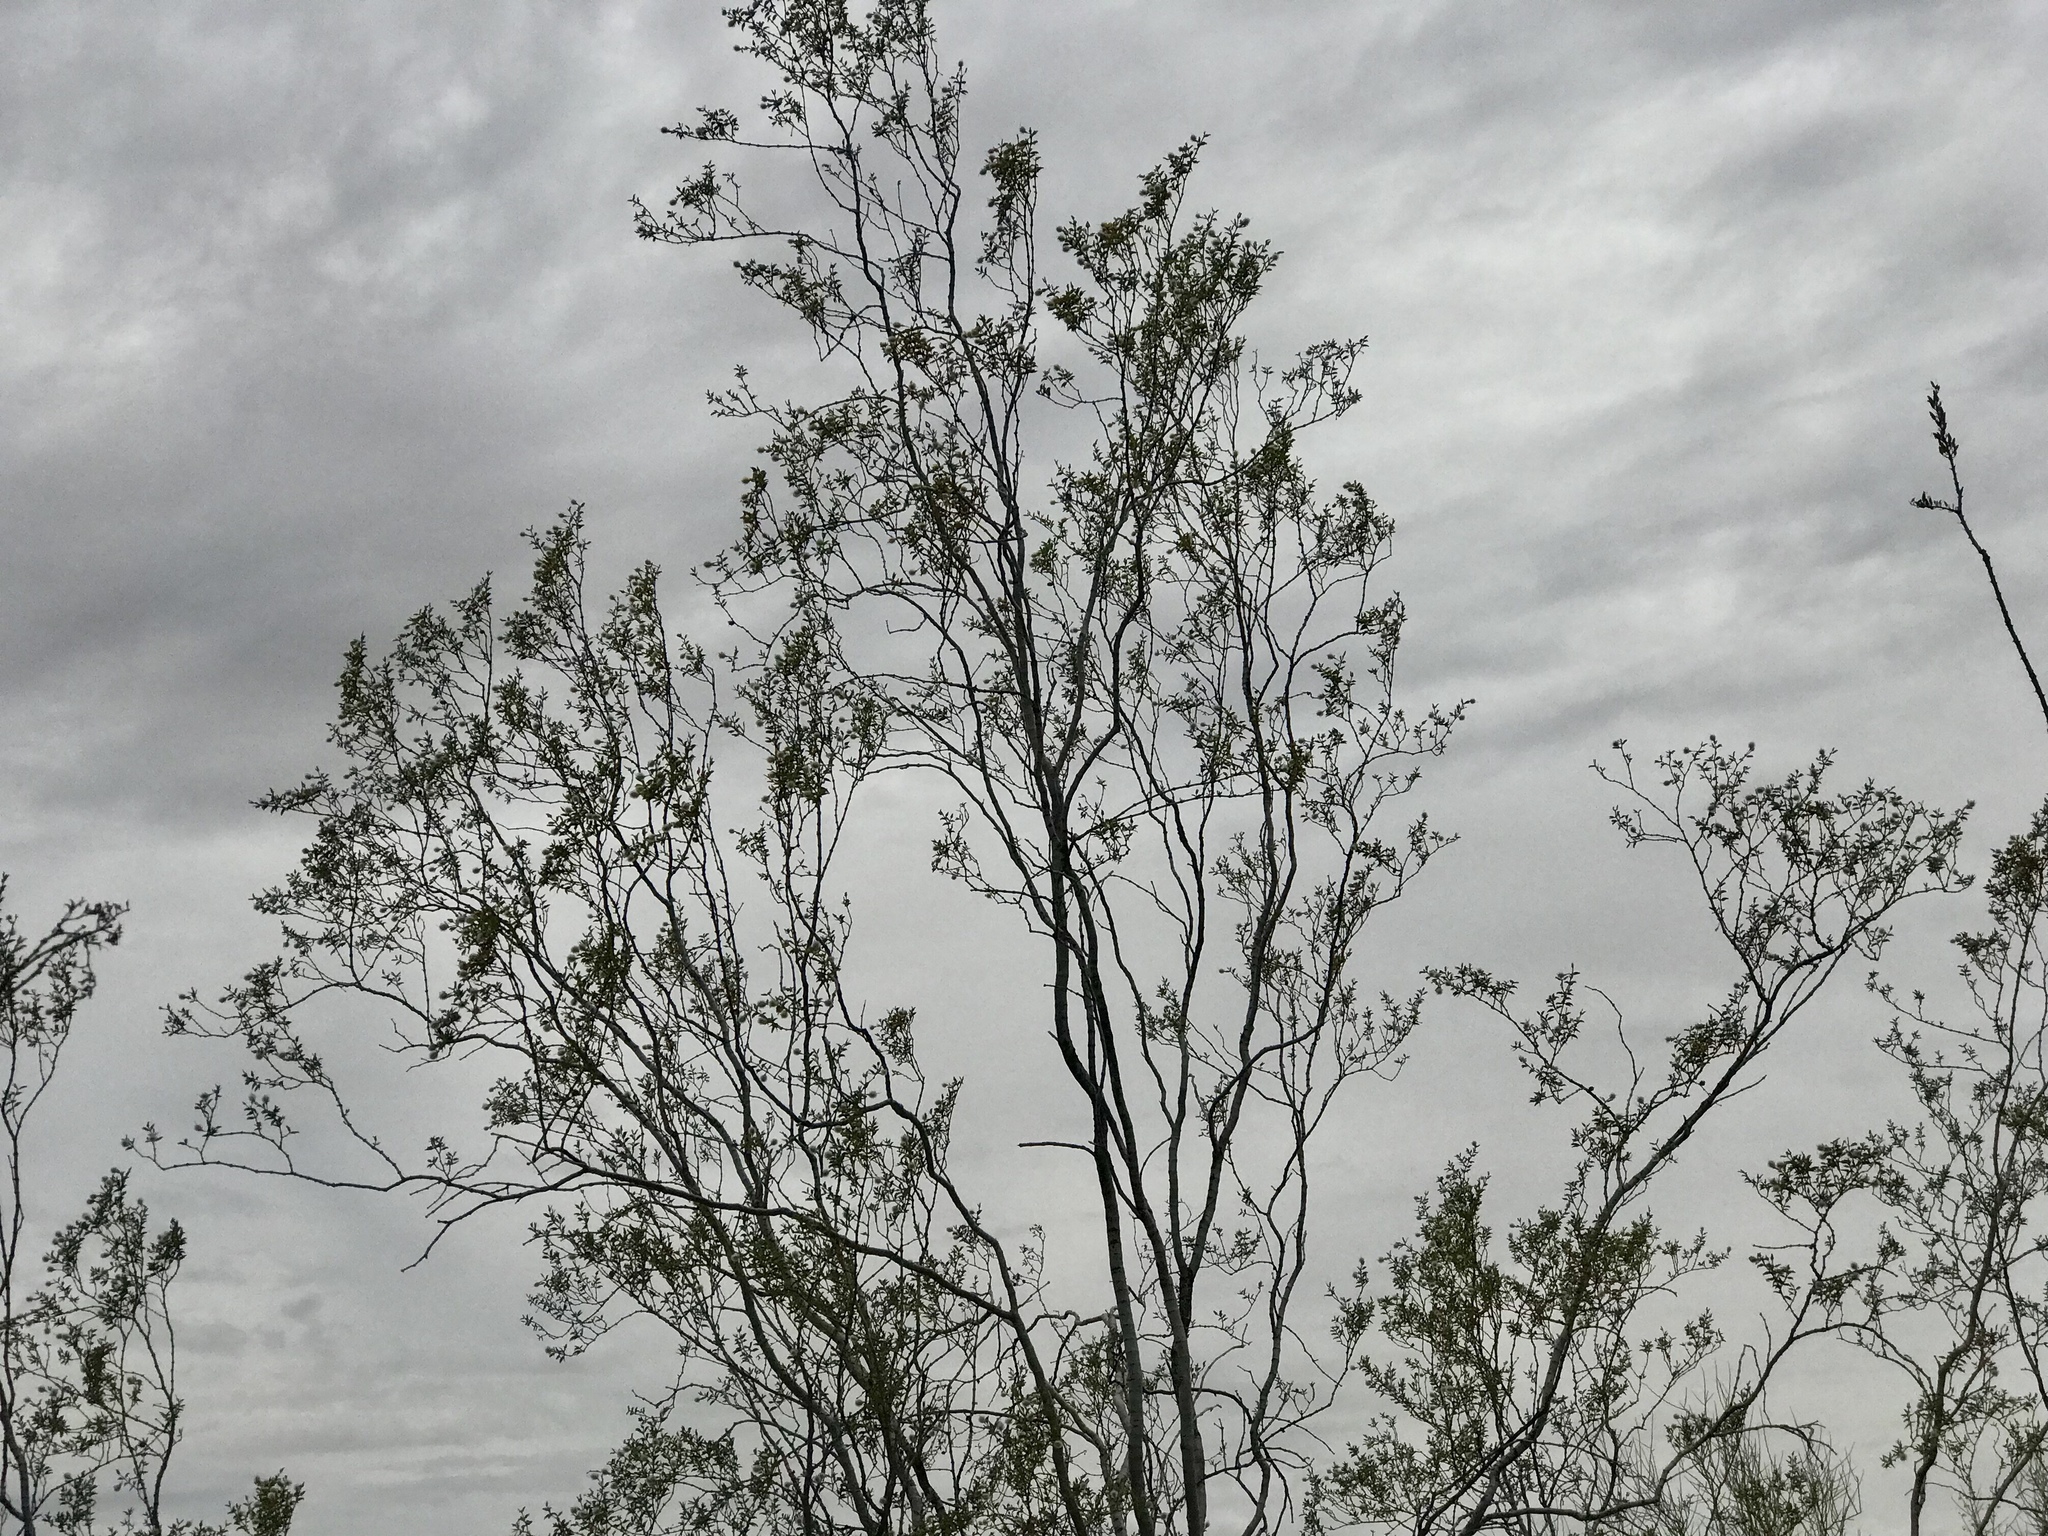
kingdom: Plantae
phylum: Tracheophyta
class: Magnoliopsida
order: Zygophyllales
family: Zygophyllaceae
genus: Larrea
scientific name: Larrea tridentata
